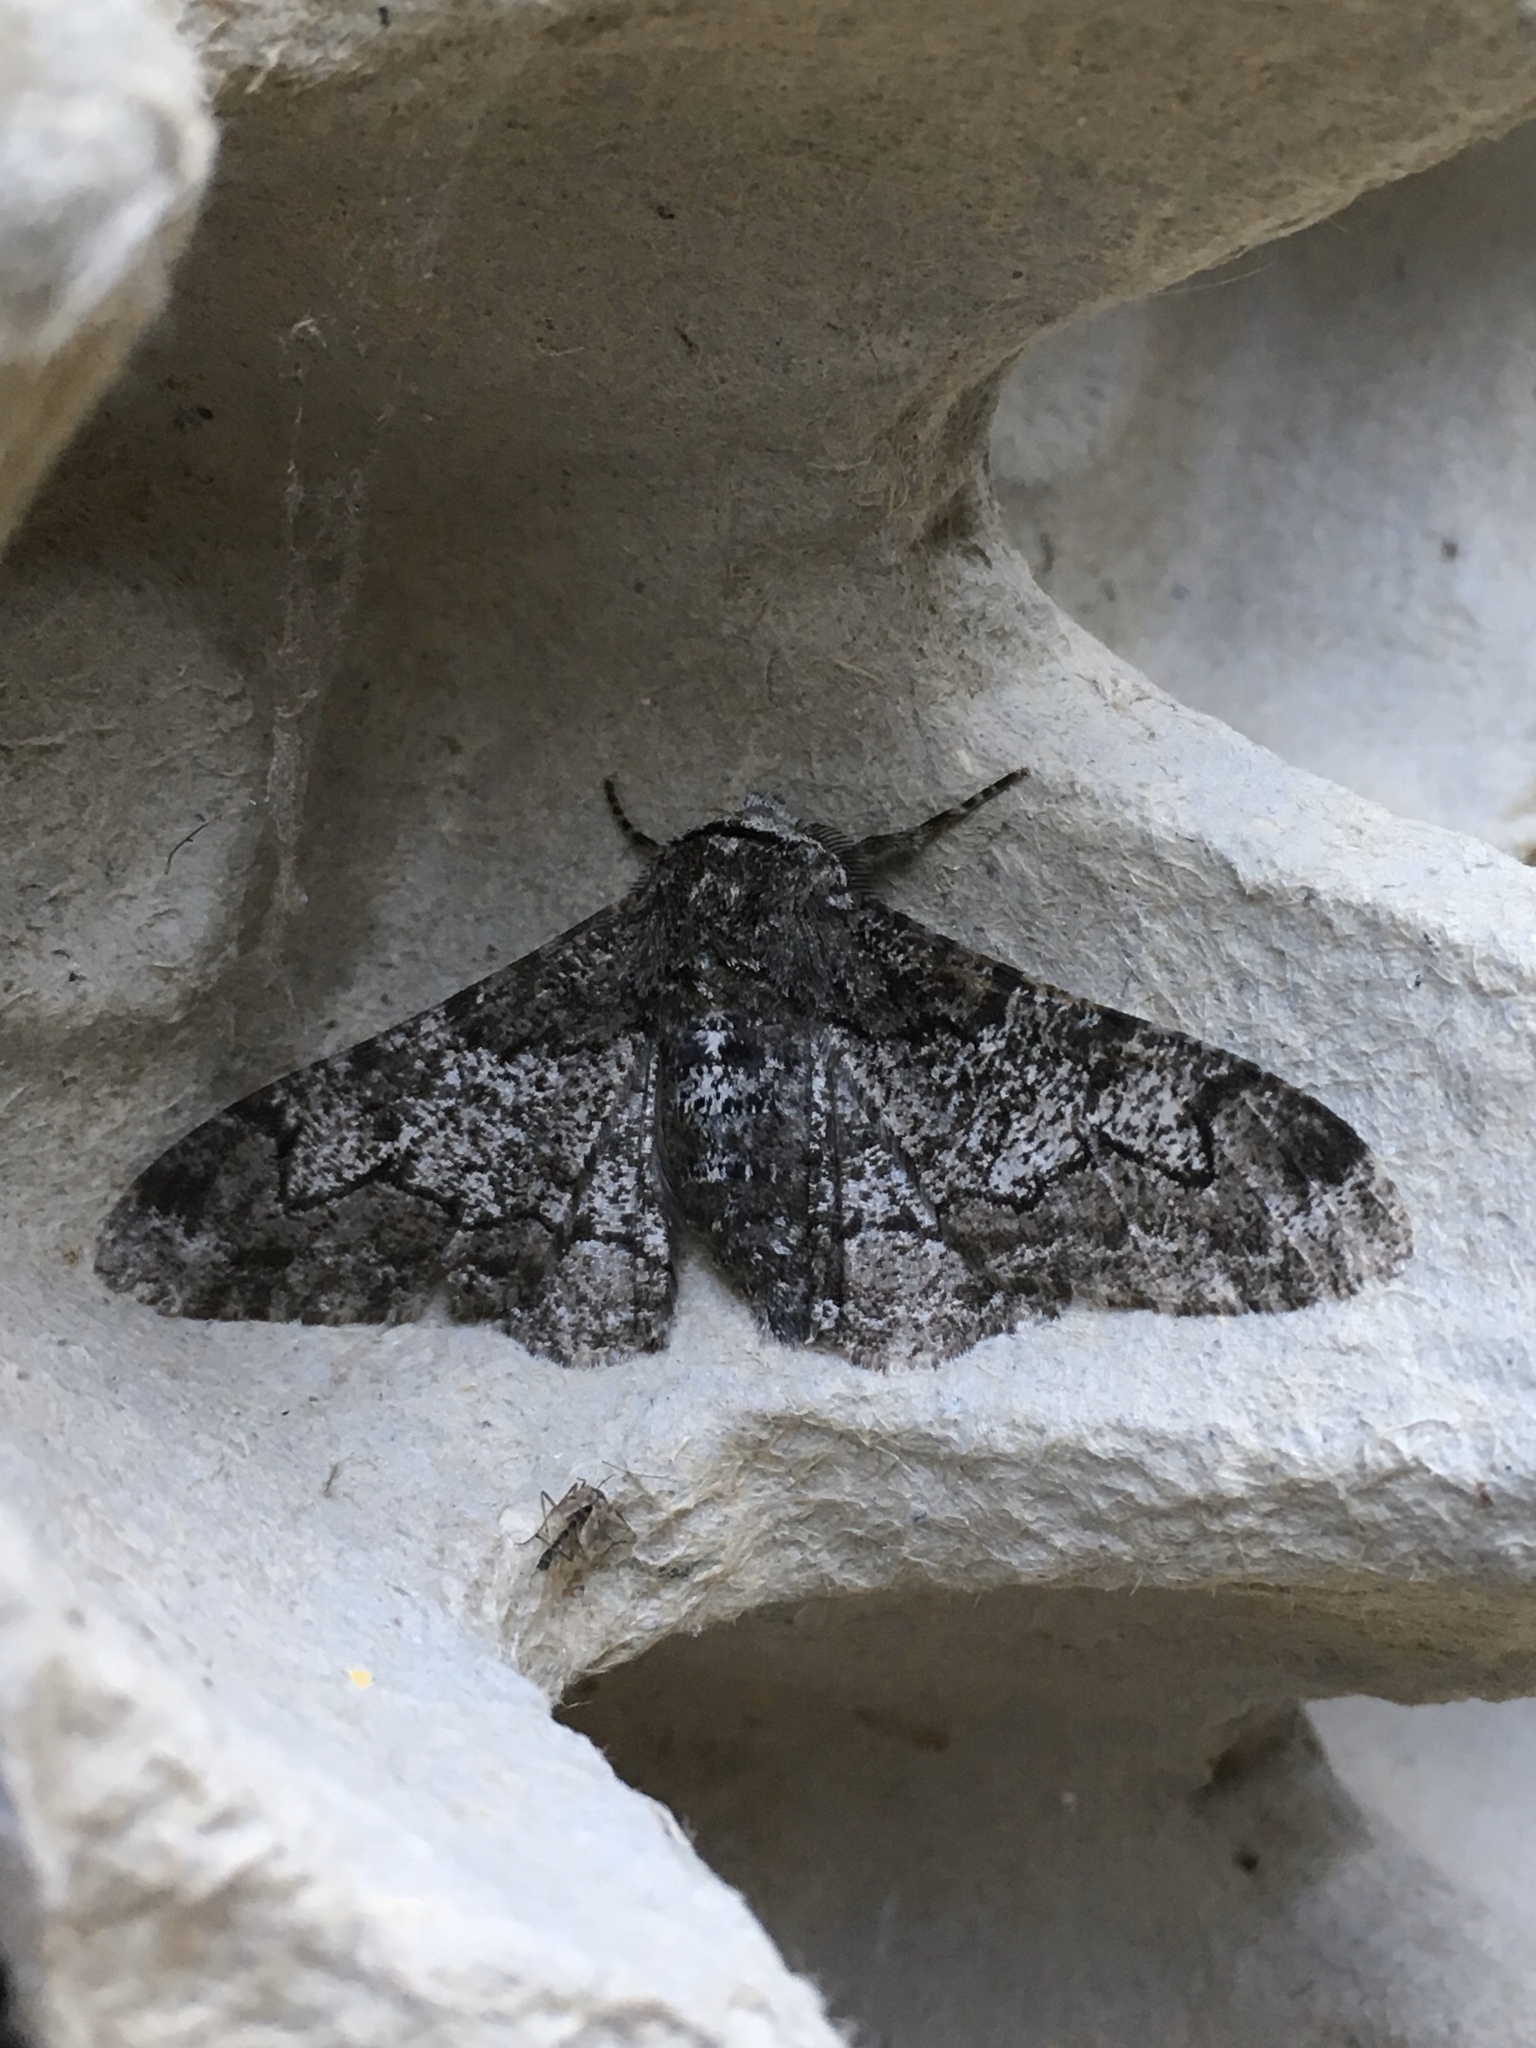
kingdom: Animalia
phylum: Arthropoda
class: Insecta
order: Lepidoptera
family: Geometridae
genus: Biston
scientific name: Biston betularia
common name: Peppered moth
